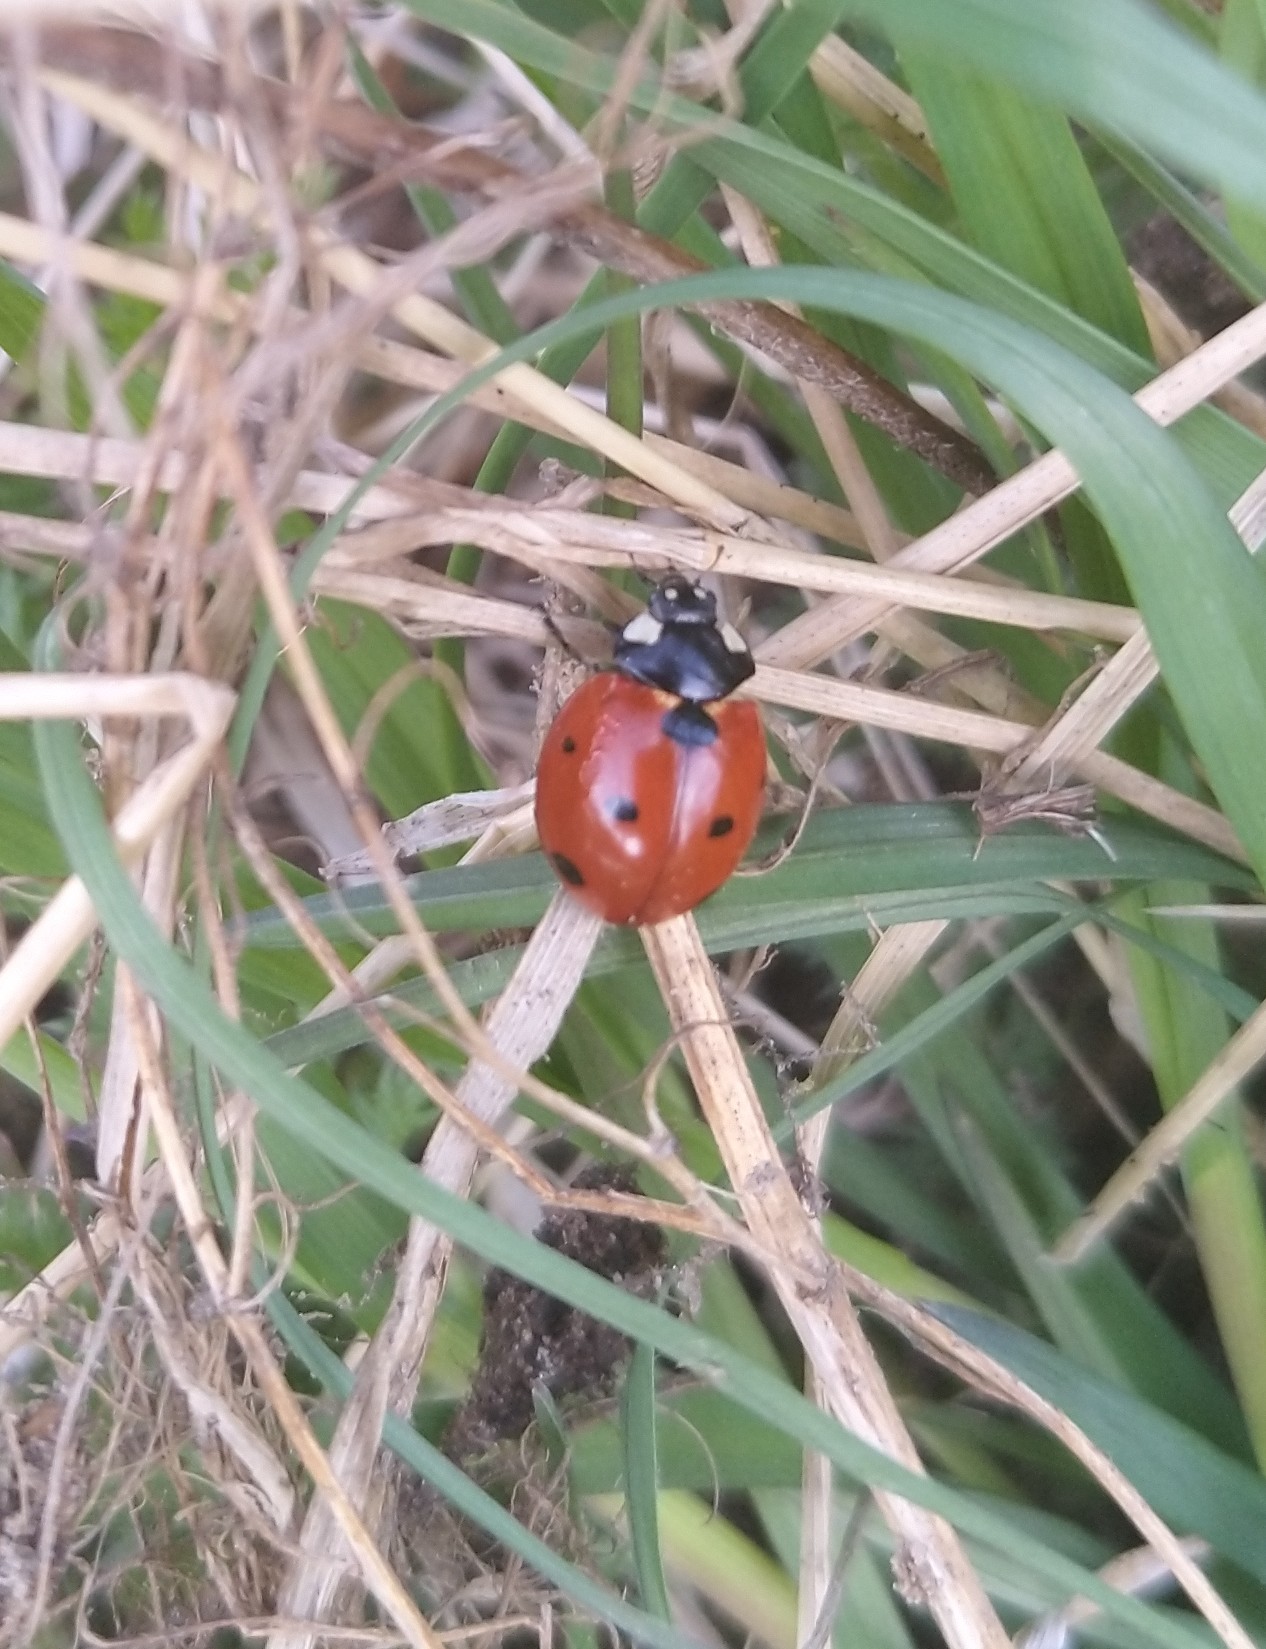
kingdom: Animalia
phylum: Arthropoda
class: Insecta
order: Coleoptera
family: Coccinellidae
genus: Coccinella
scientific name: Coccinella septempunctata
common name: Sevenspotted lady beetle
